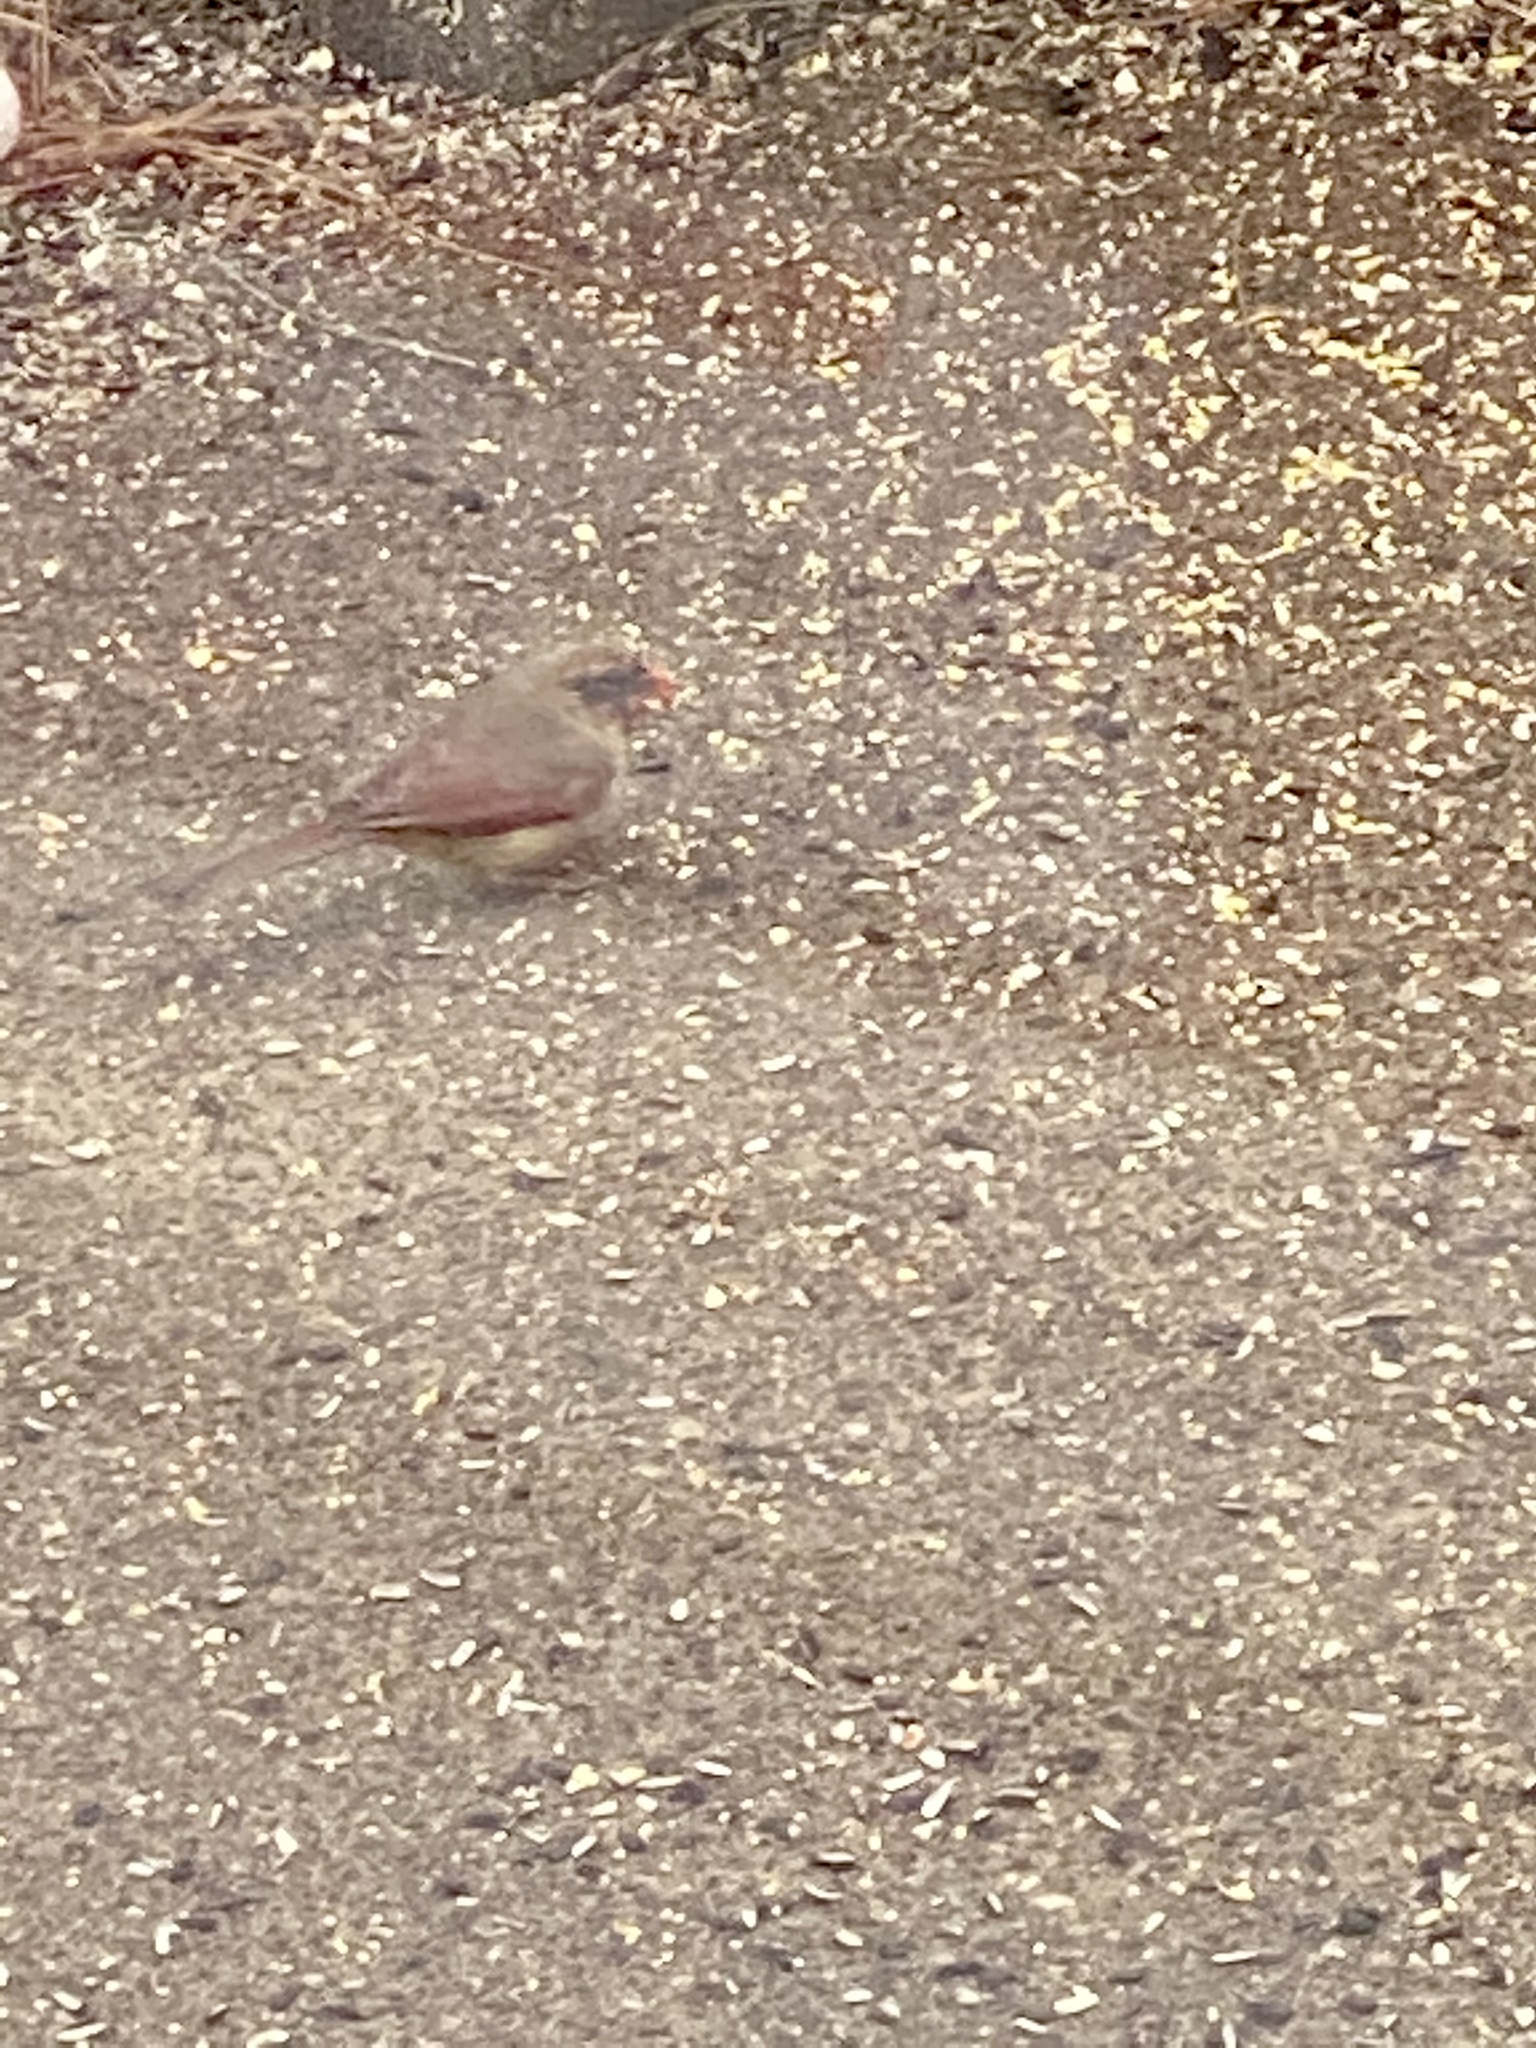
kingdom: Animalia
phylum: Chordata
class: Aves
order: Passeriformes
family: Cardinalidae
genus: Cardinalis
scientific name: Cardinalis cardinalis
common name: Northern cardinal
